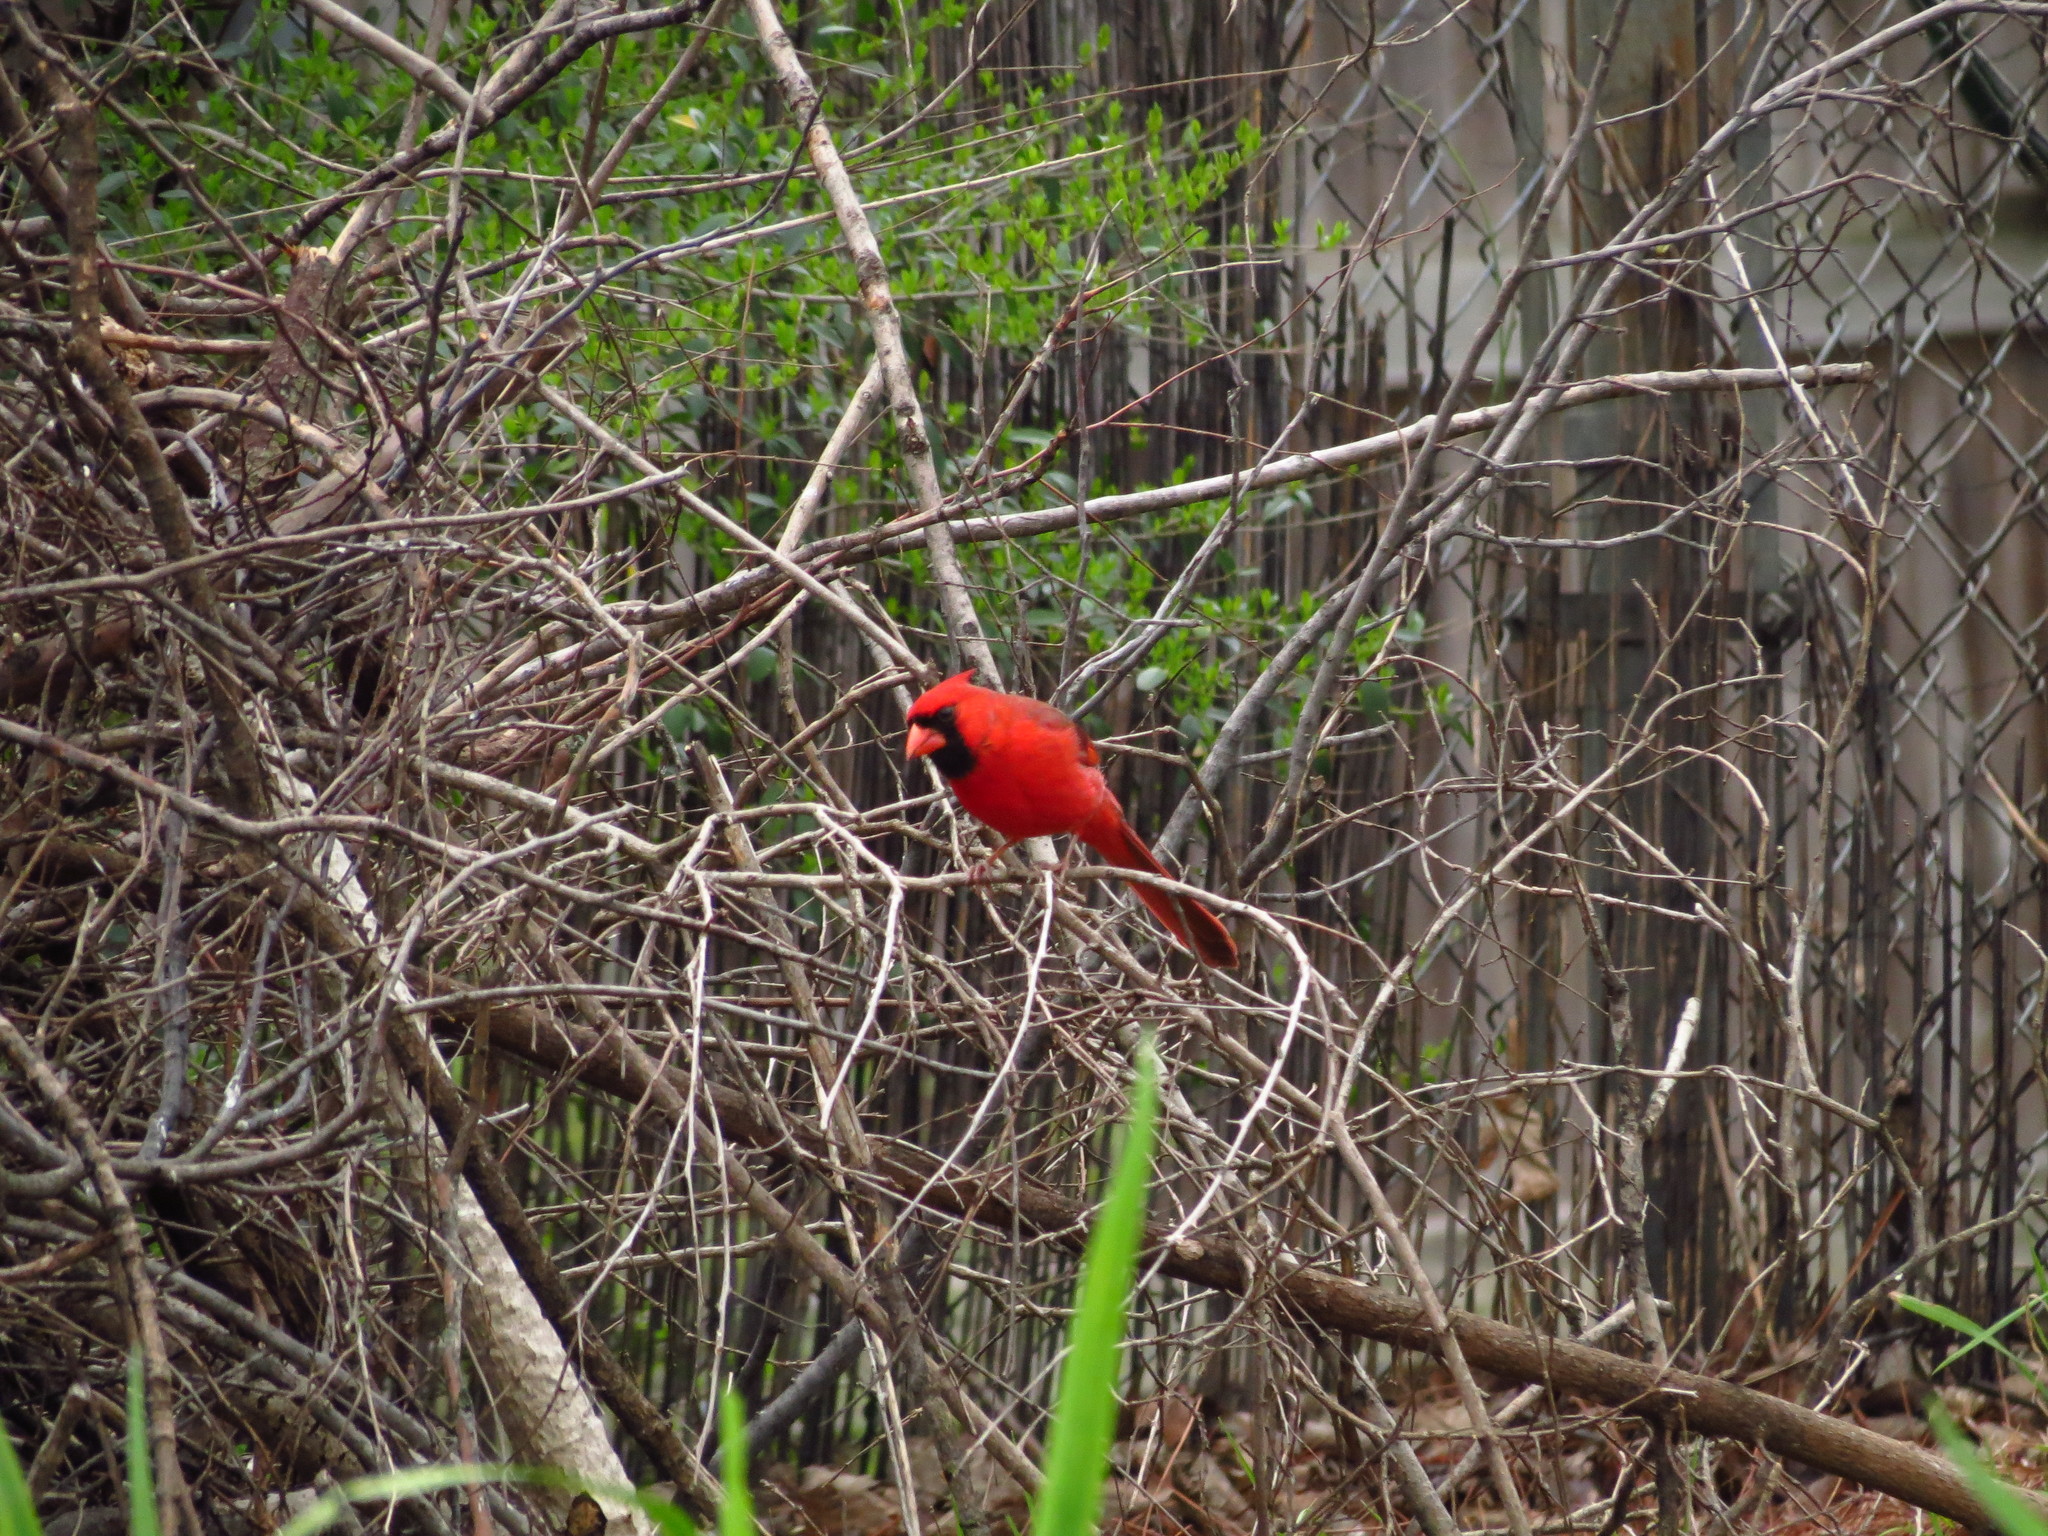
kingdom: Animalia
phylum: Chordata
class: Aves
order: Passeriformes
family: Cardinalidae
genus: Cardinalis
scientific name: Cardinalis cardinalis
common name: Northern cardinal
